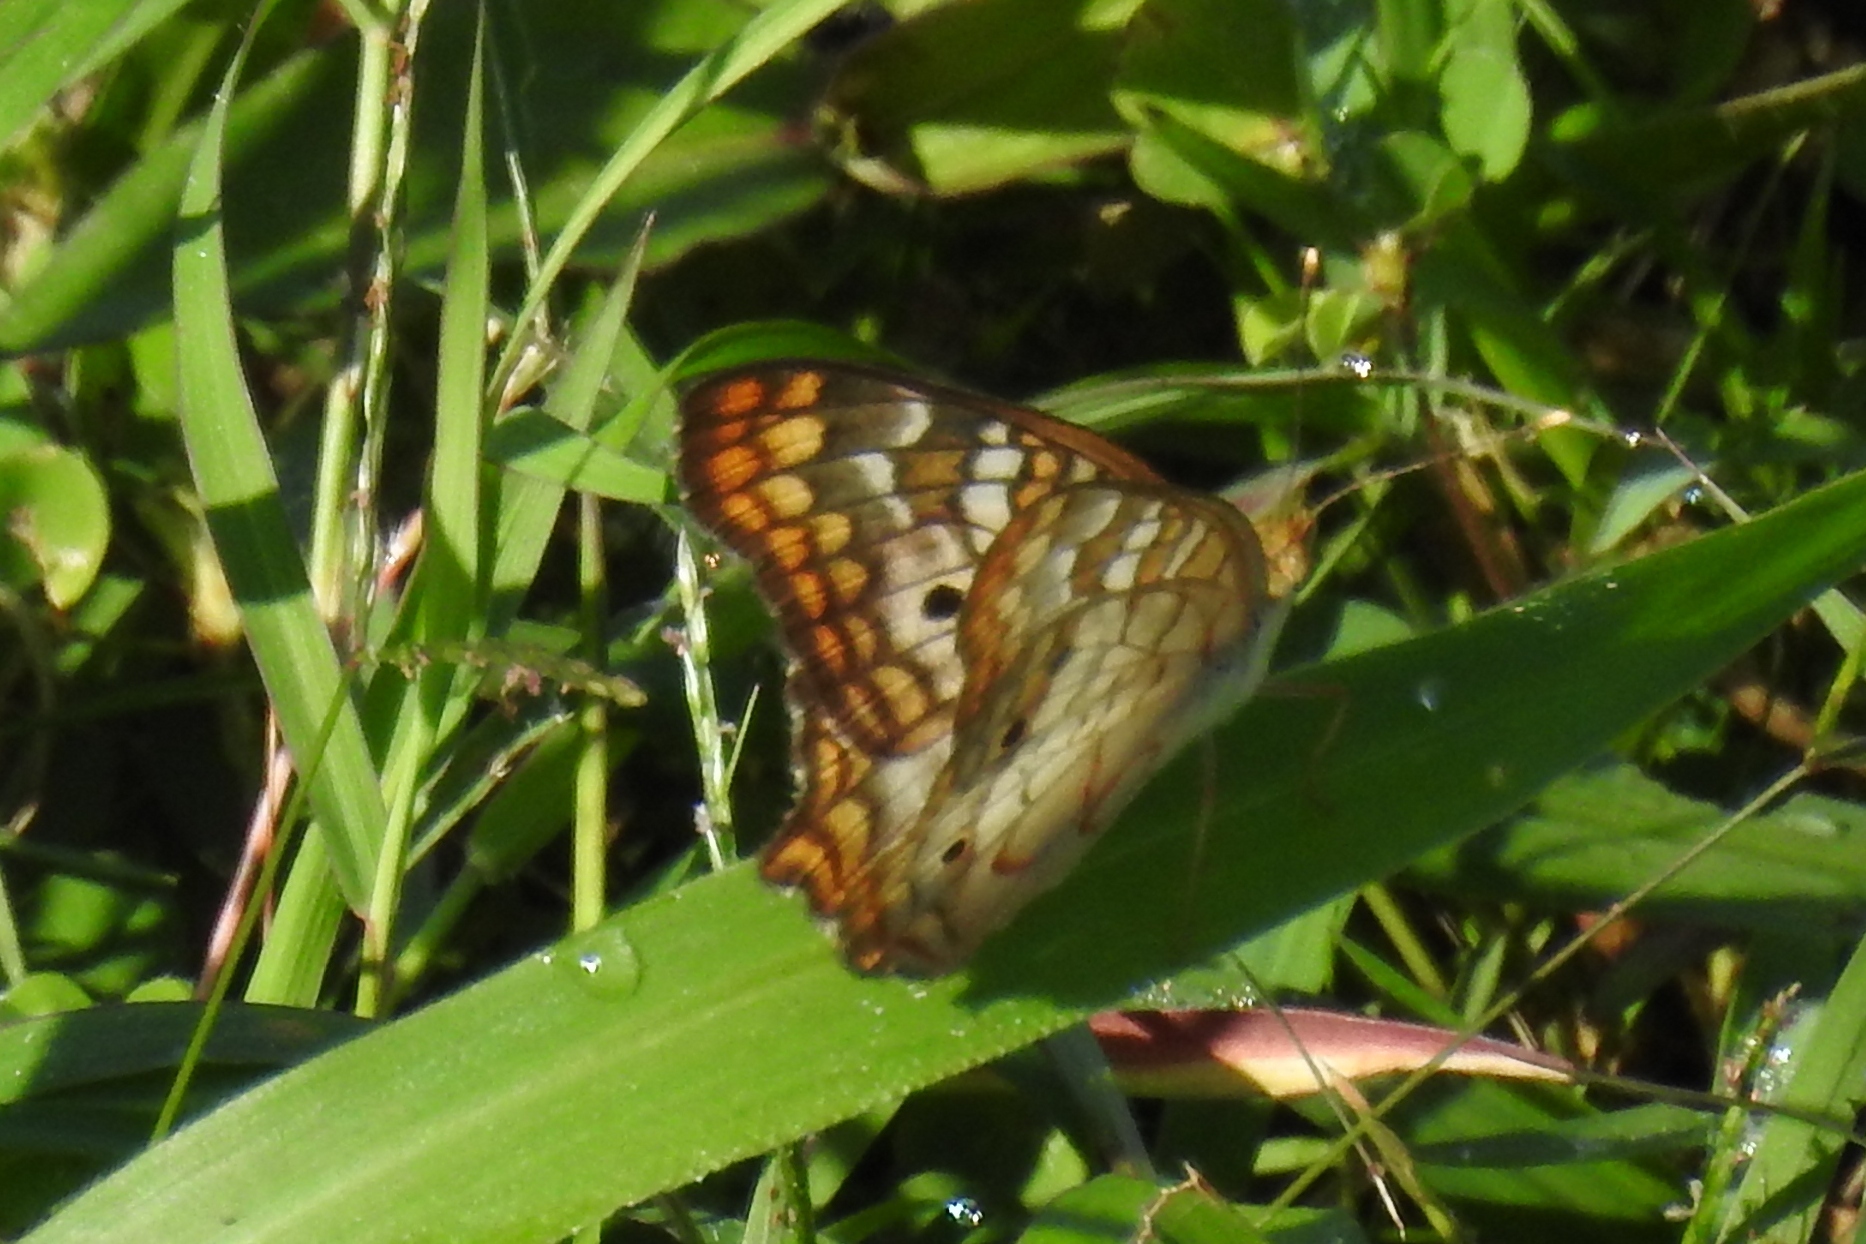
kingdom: Animalia
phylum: Arthropoda
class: Insecta
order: Lepidoptera
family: Nymphalidae
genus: Anartia
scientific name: Anartia jatrophae
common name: White peacock
